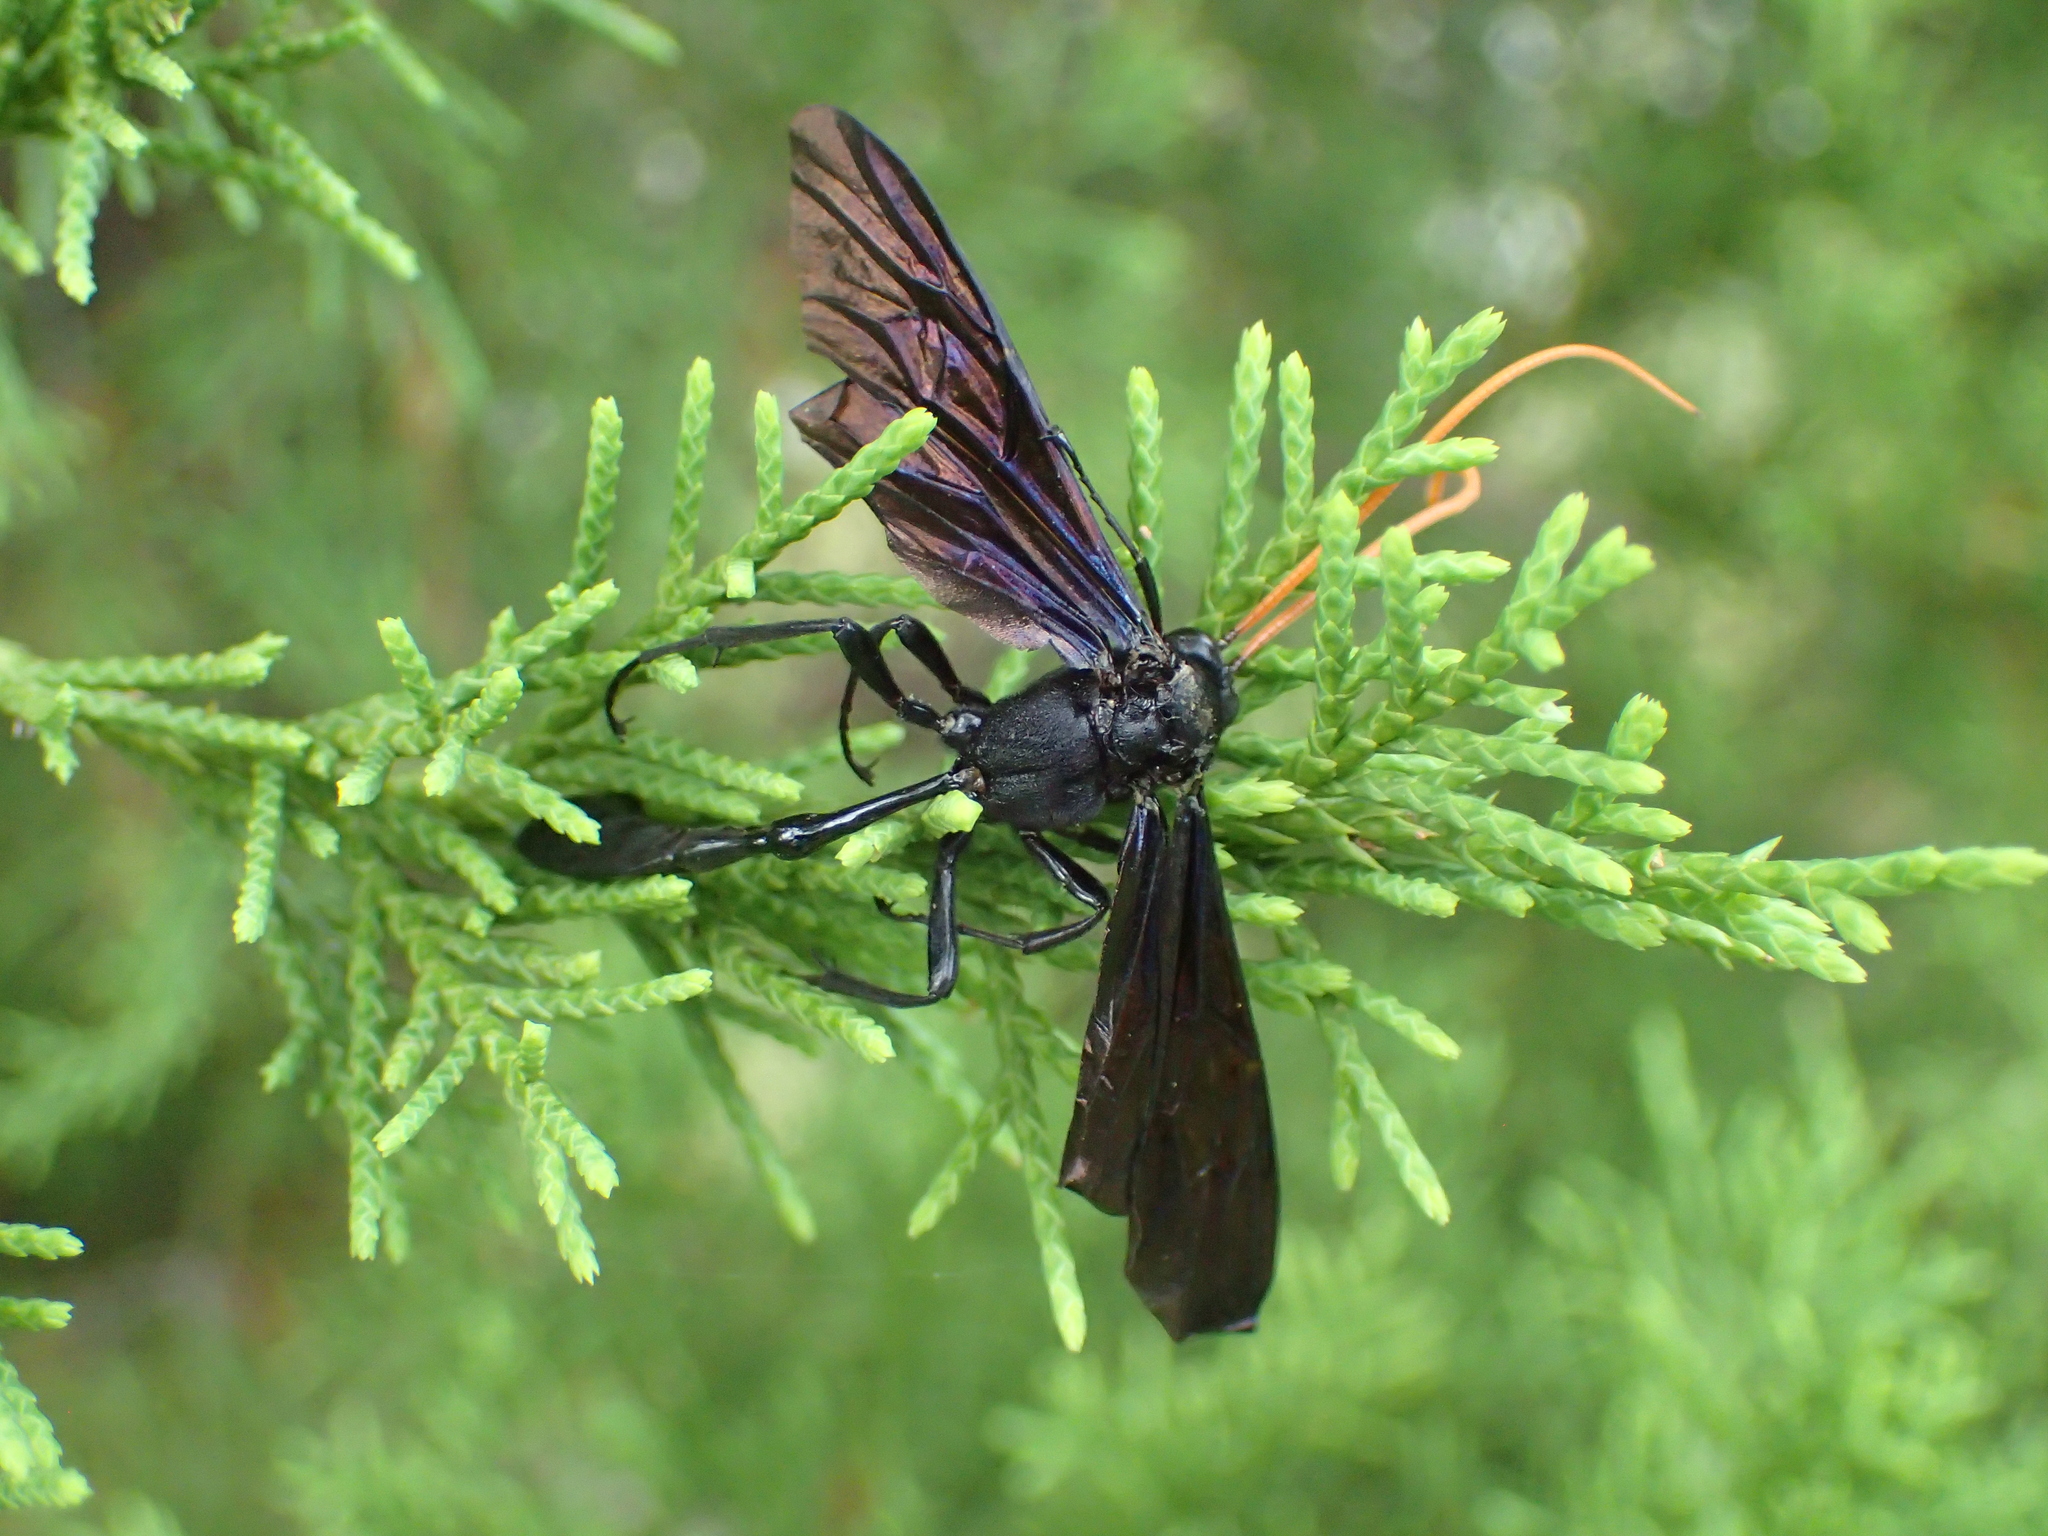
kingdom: Animalia
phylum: Arthropoda
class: Insecta
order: Hymenoptera
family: Ichneumonidae
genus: Thyreodon
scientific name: Thyreodon atricolor
